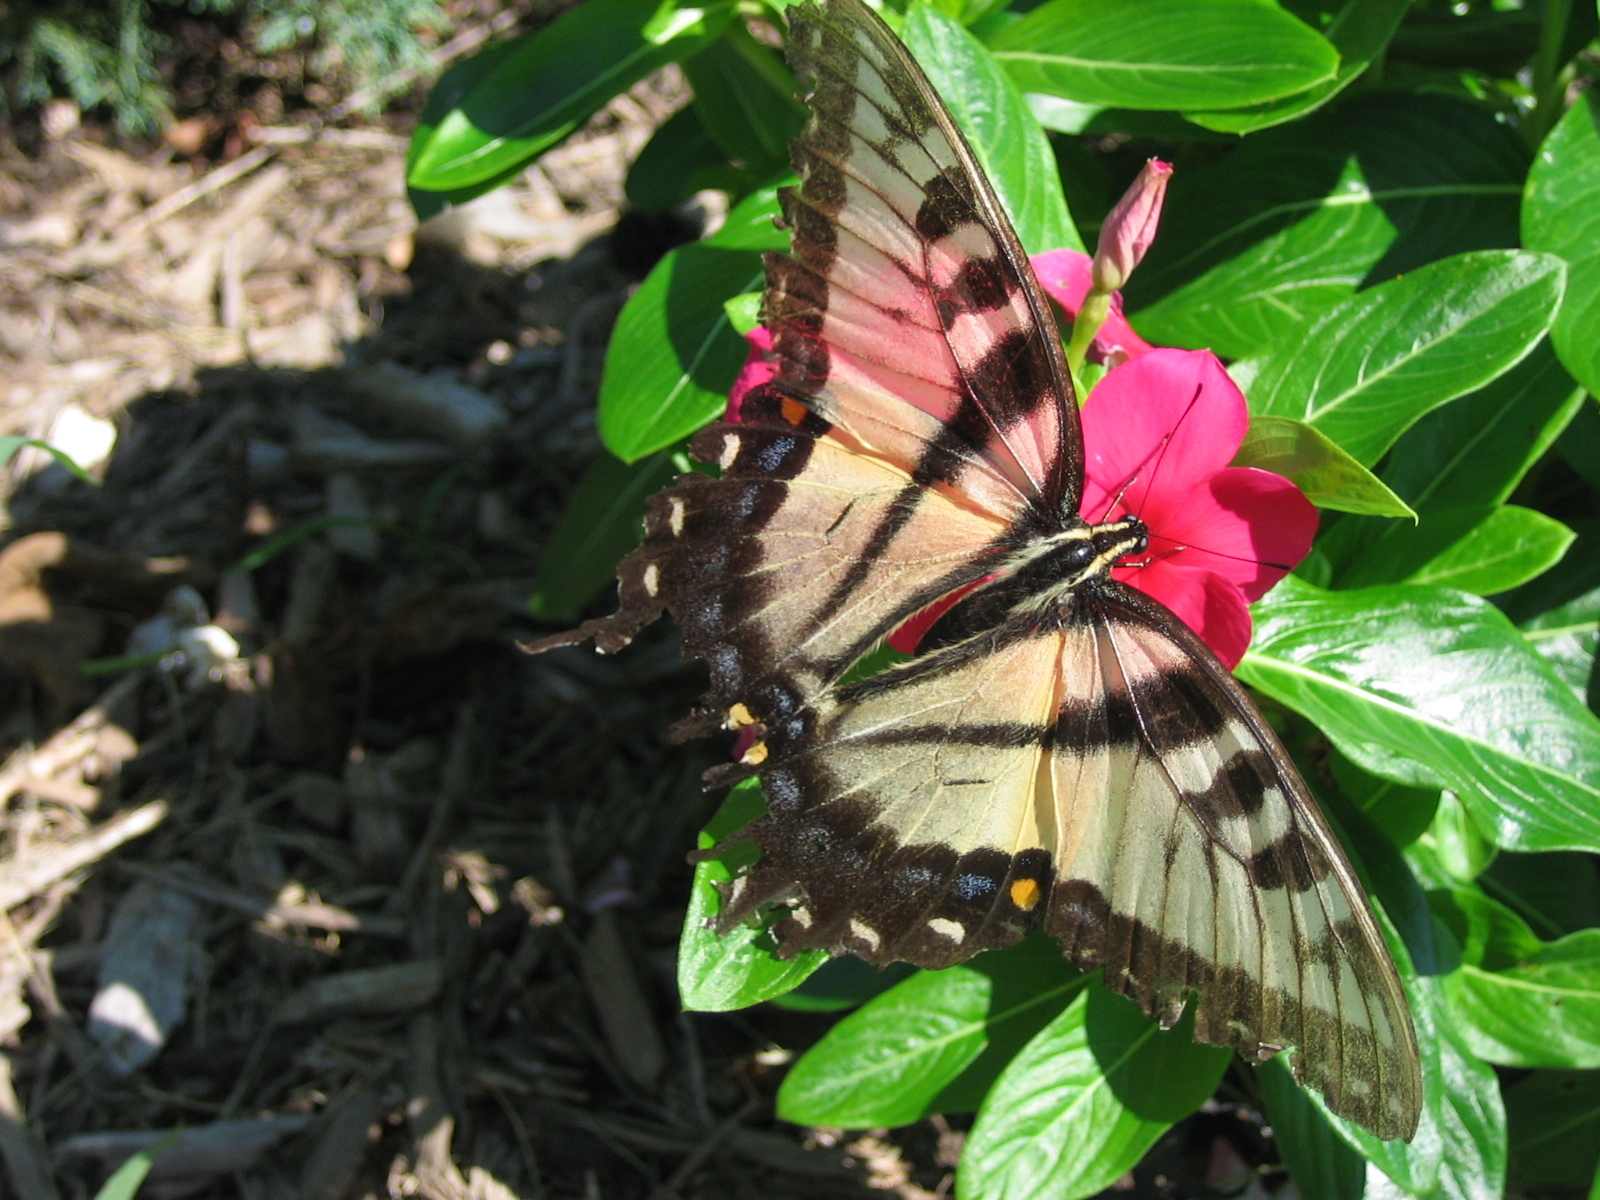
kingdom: Animalia
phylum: Arthropoda
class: Insecta
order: Lepidoptera
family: Papilionidae
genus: Papilio
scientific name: Papilio glaucus
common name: Tiger swallowtail
